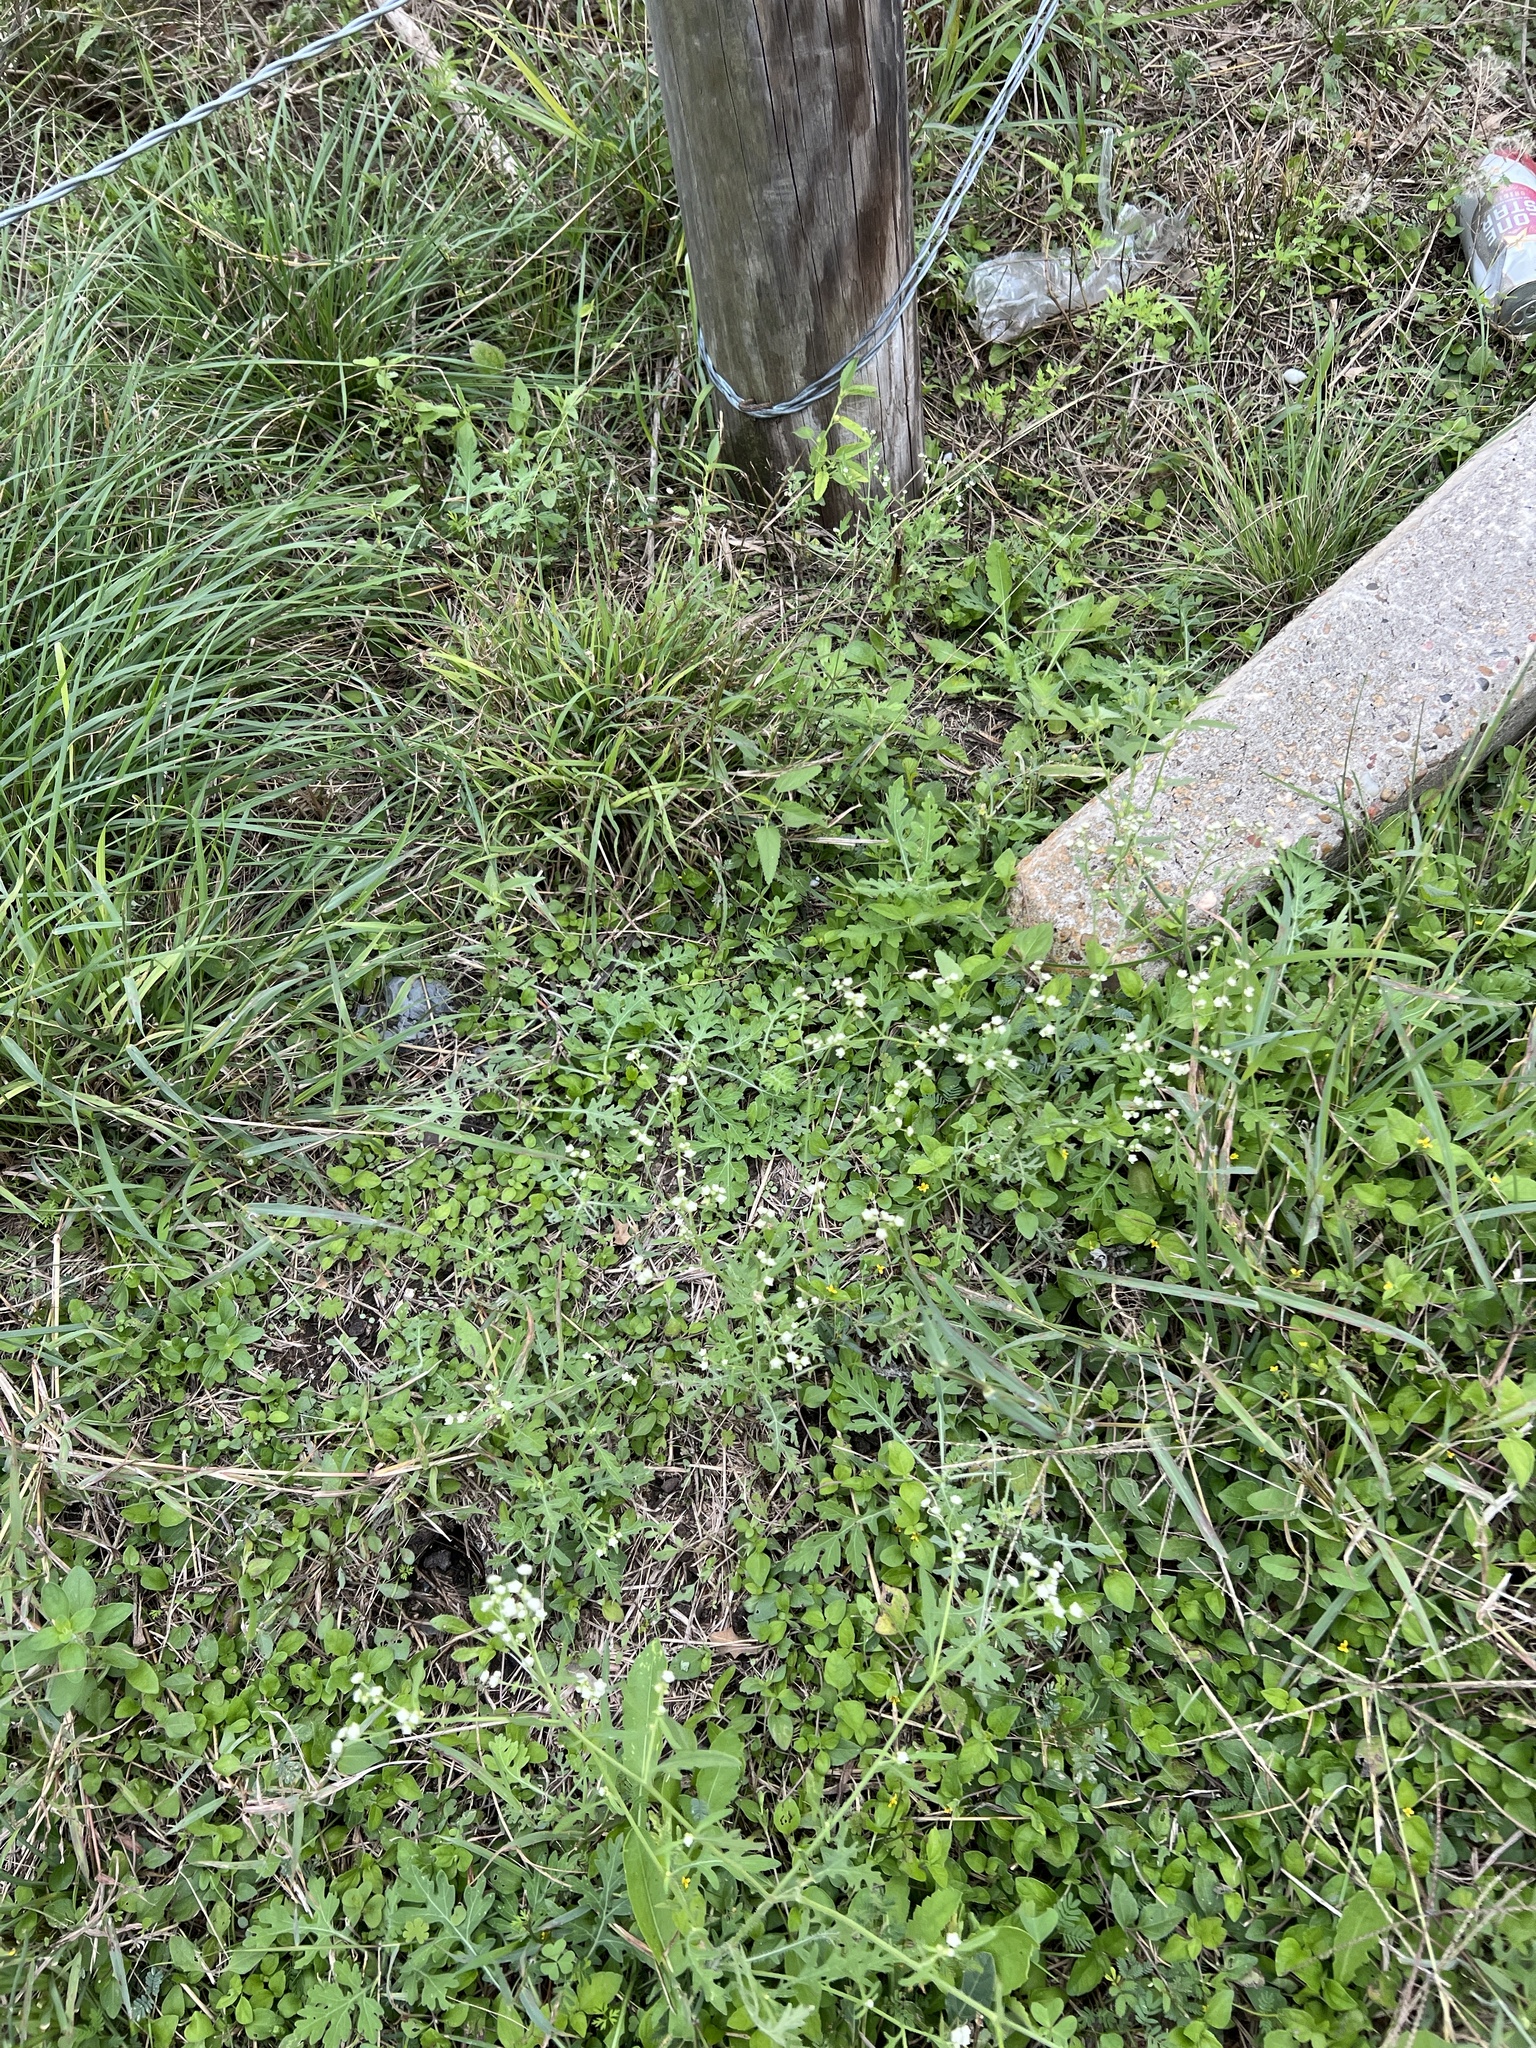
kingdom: Plantae
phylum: Tracheophyta
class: Magnoliopsida
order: Asterales
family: Asteraceae
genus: Parthenium
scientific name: Parthenium hysterophorus
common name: Santa maria feverfew
